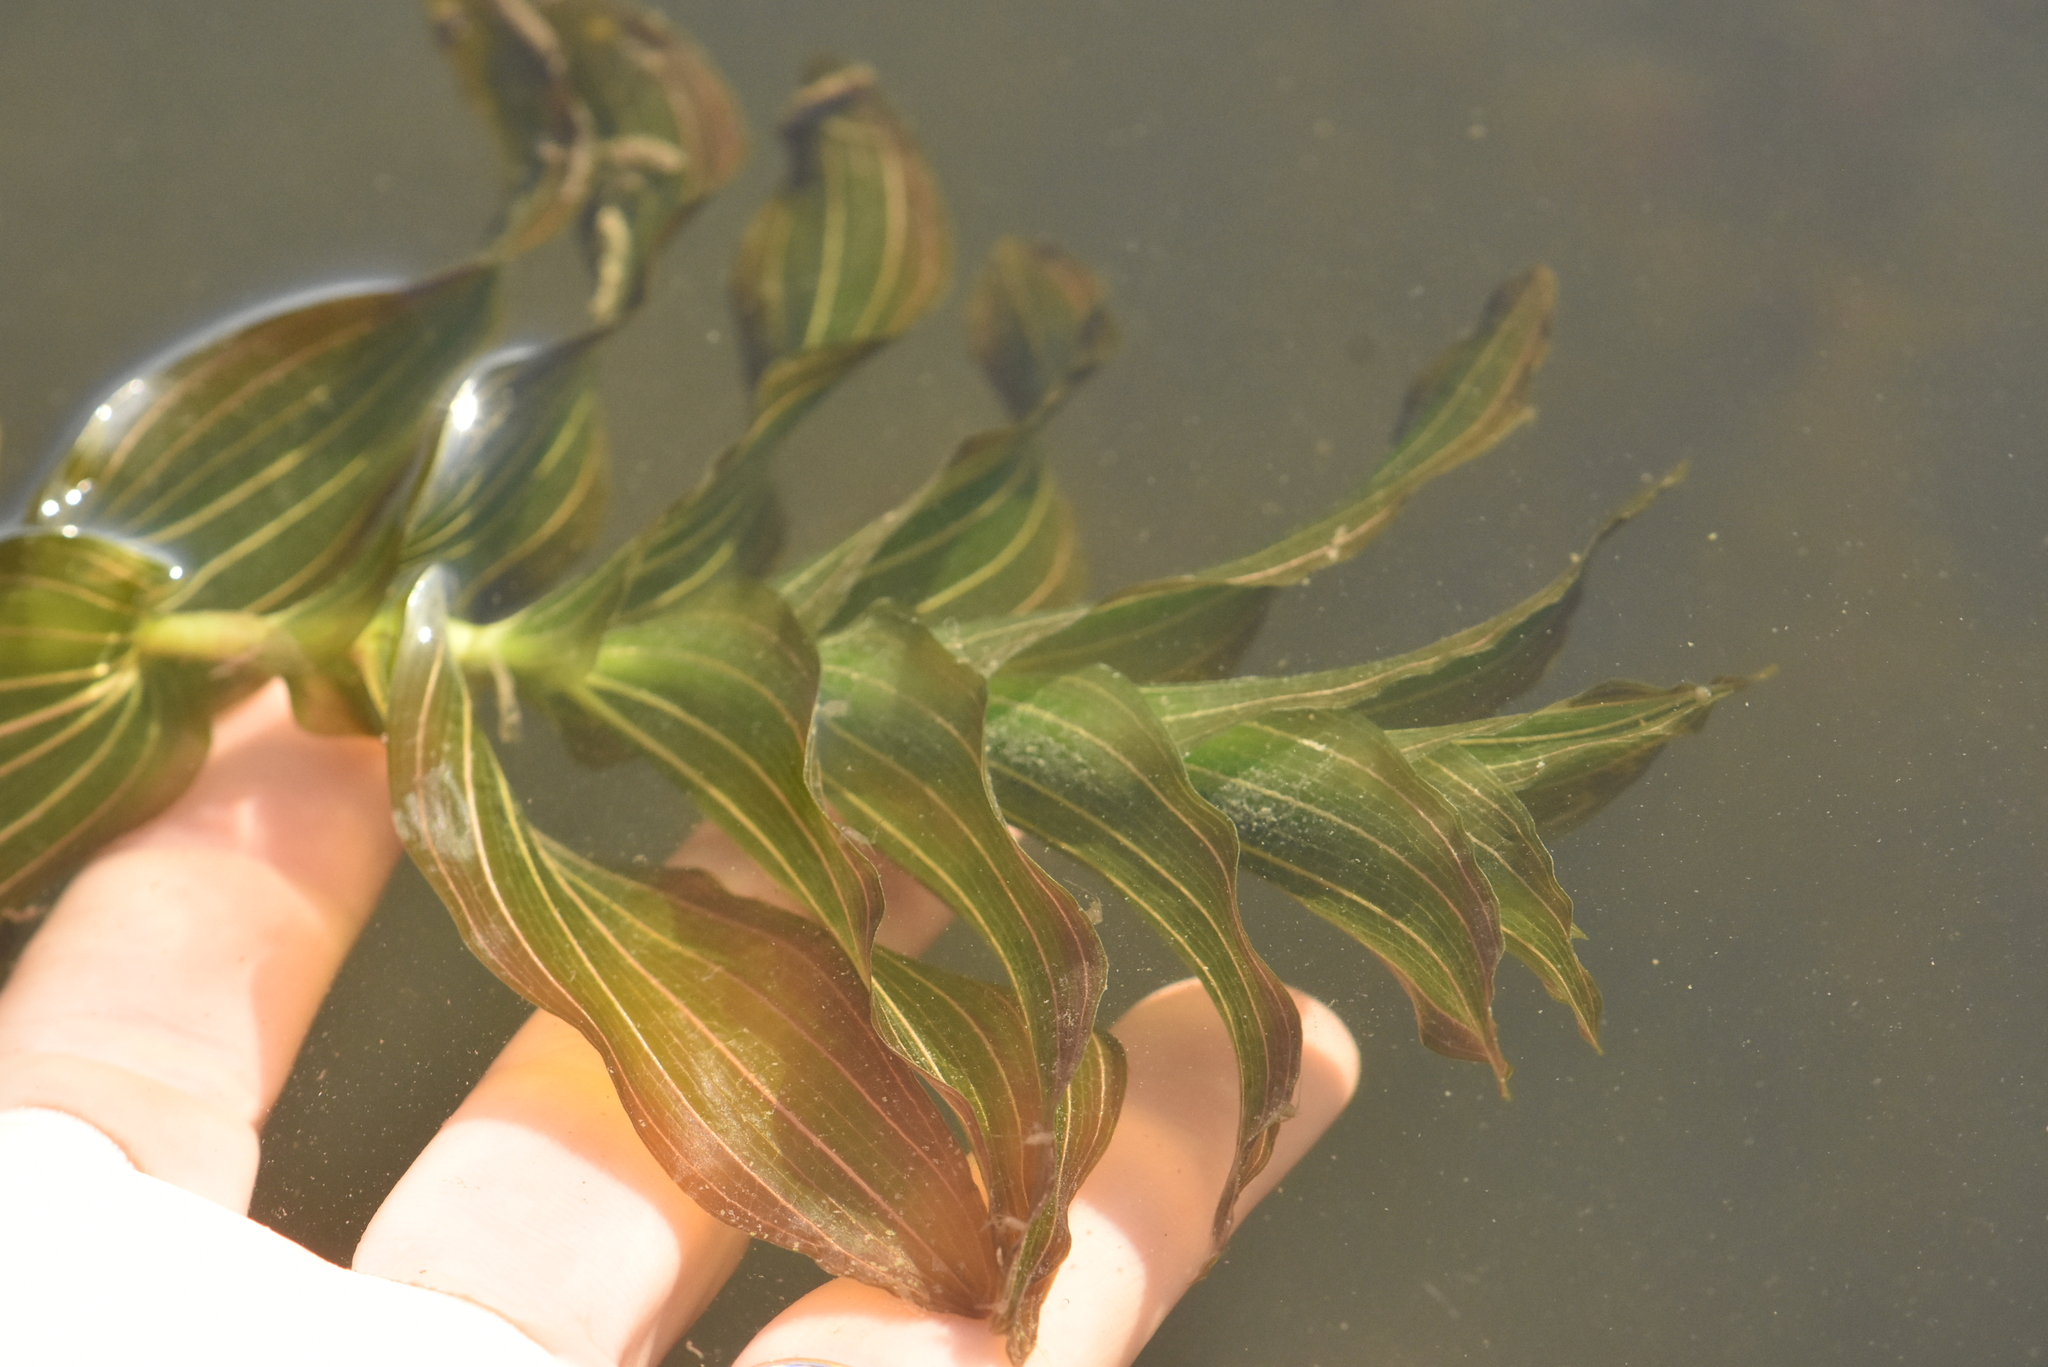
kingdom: Plantae
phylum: Tracheophyta
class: Liliopsida
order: Alismatales
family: Potamogetonaceae
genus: Potamogeton
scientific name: Potamogeton perfoliatus
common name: Perfoliate pondweed
